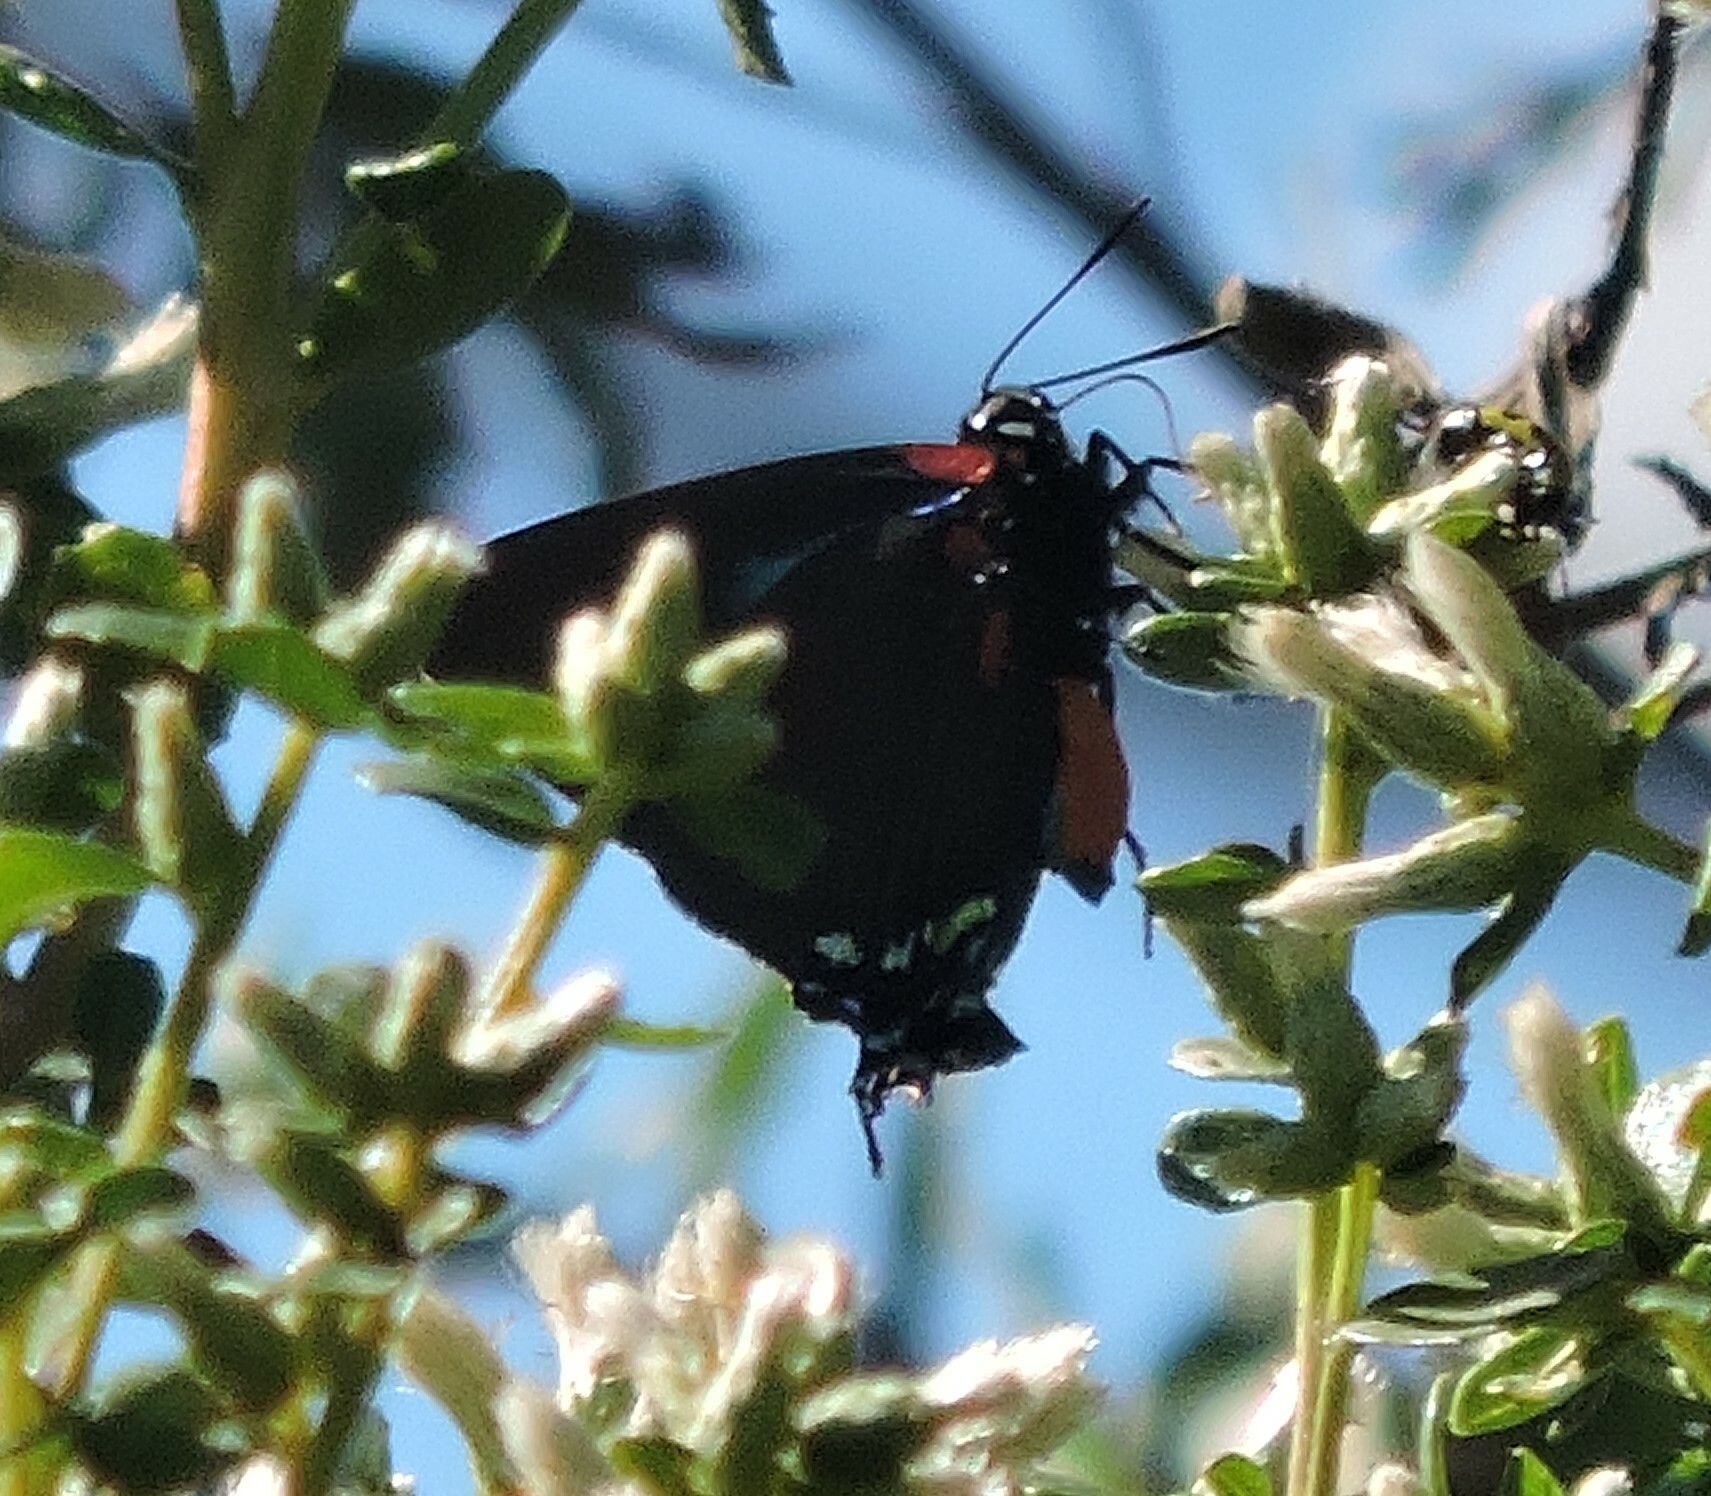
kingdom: Animalia
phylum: Arthropoda
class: Insecta
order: Lepidoptera
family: Lycaenidae
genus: Atlides
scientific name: Atlides halesus
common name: Great purple hairstreak
